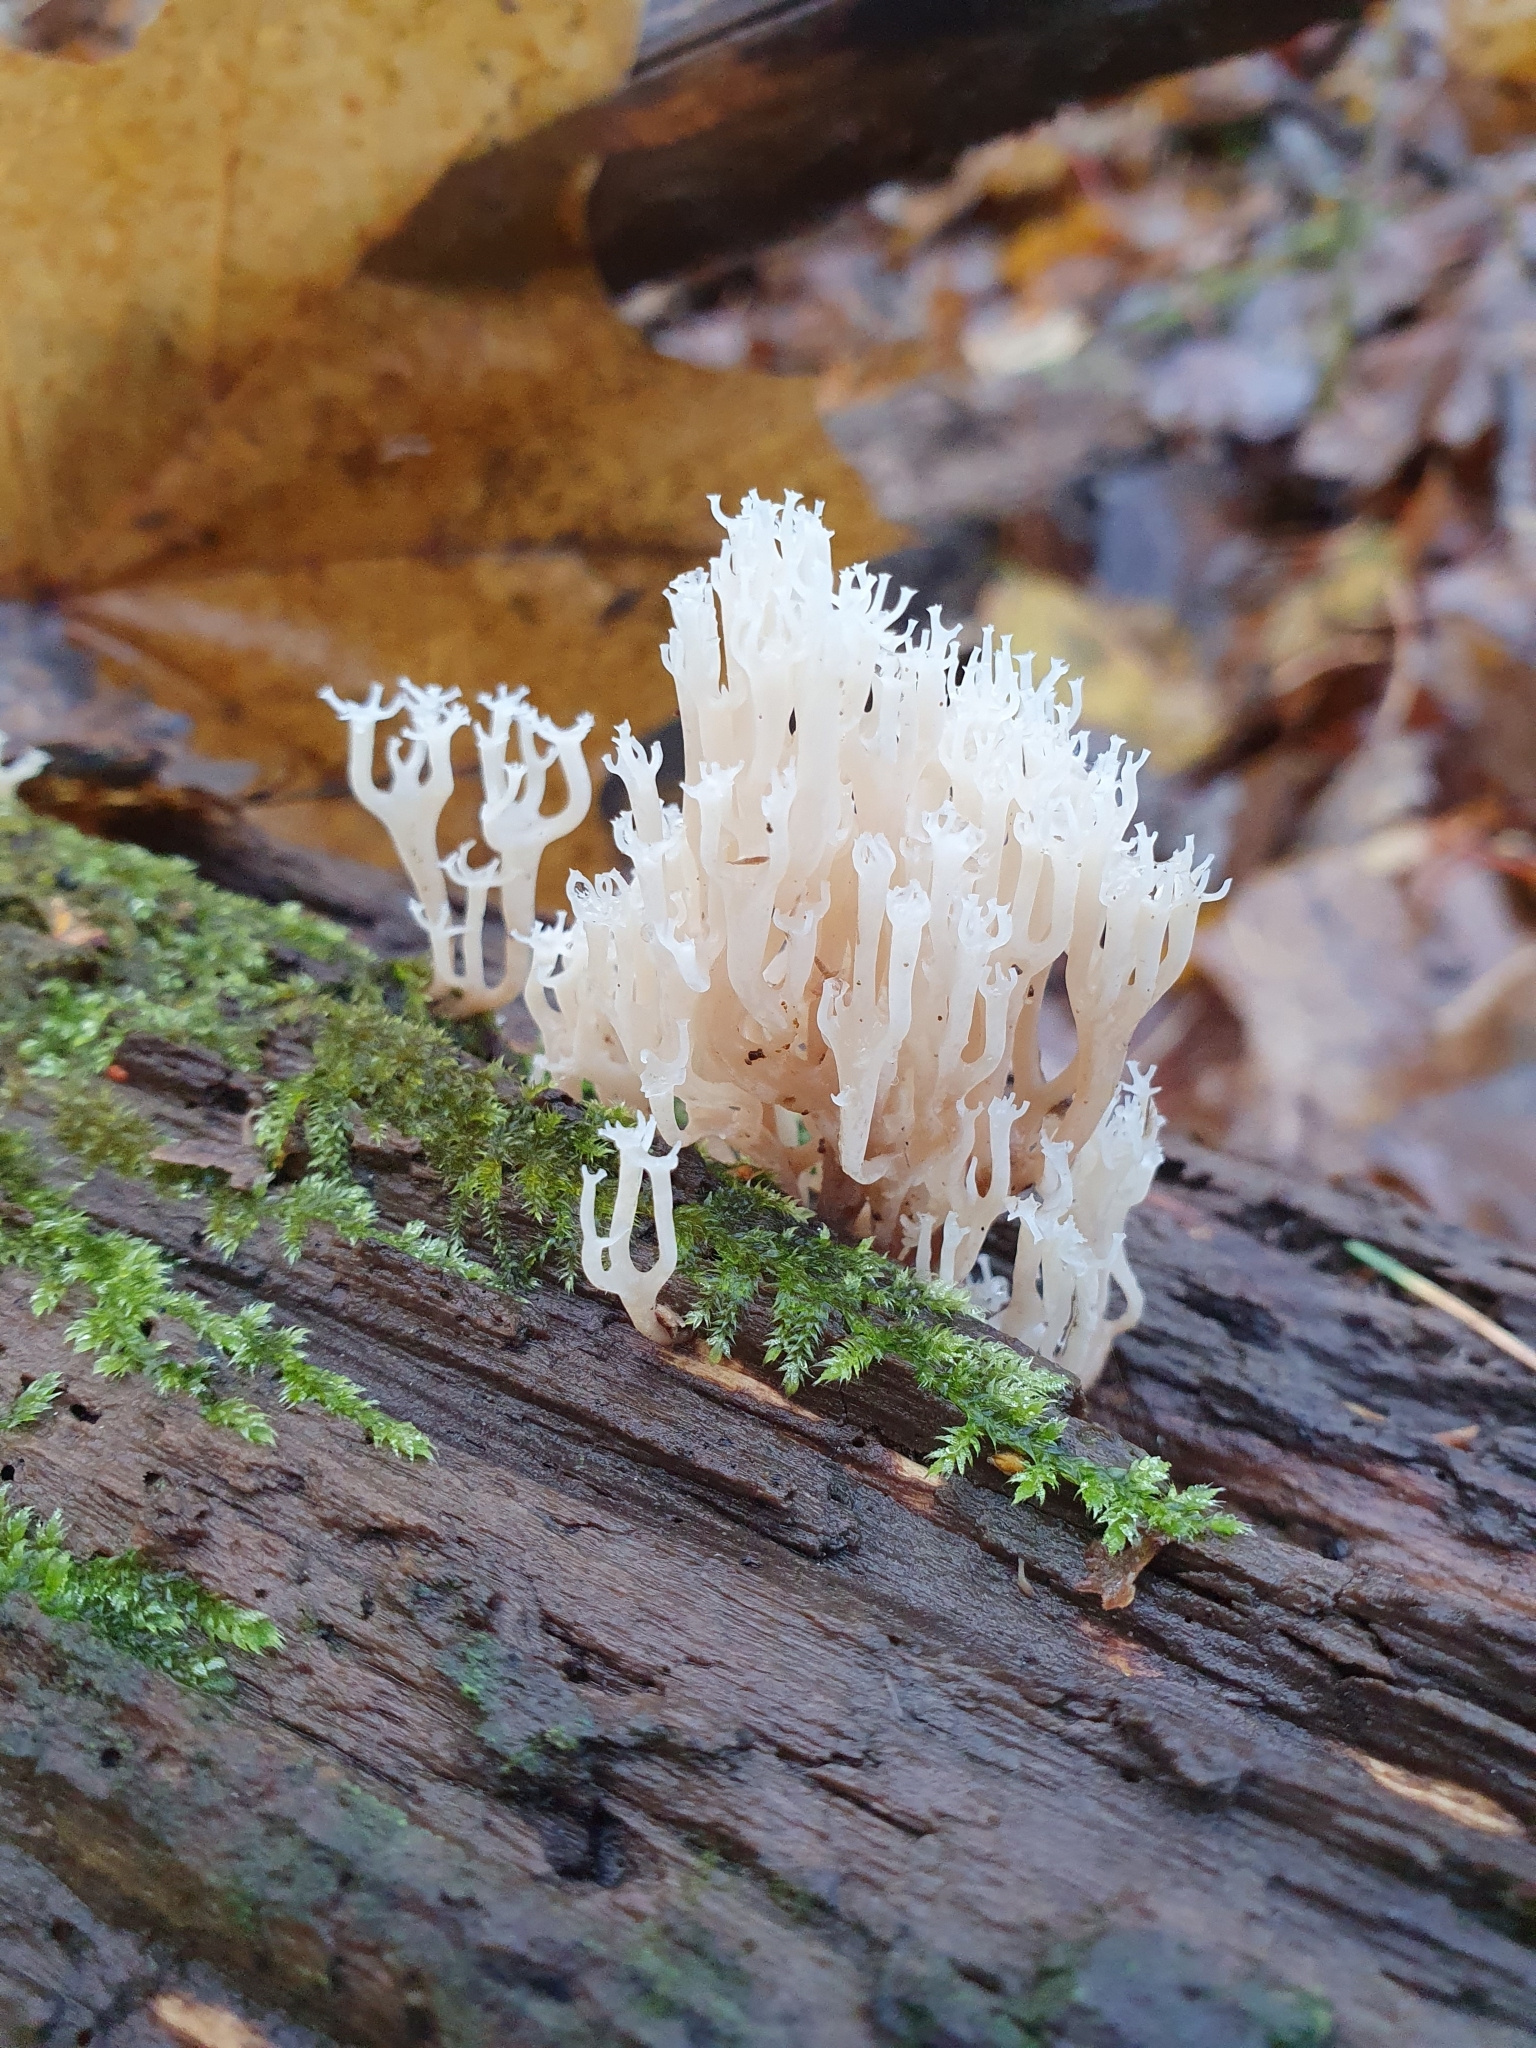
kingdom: Fungi
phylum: Basidiomycota
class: Agaricomycetes
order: Russulales
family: Auriscalpiaceae
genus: Artomyces
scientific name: Artomyces pyxidatus
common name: Crown-tipped coral fungus
